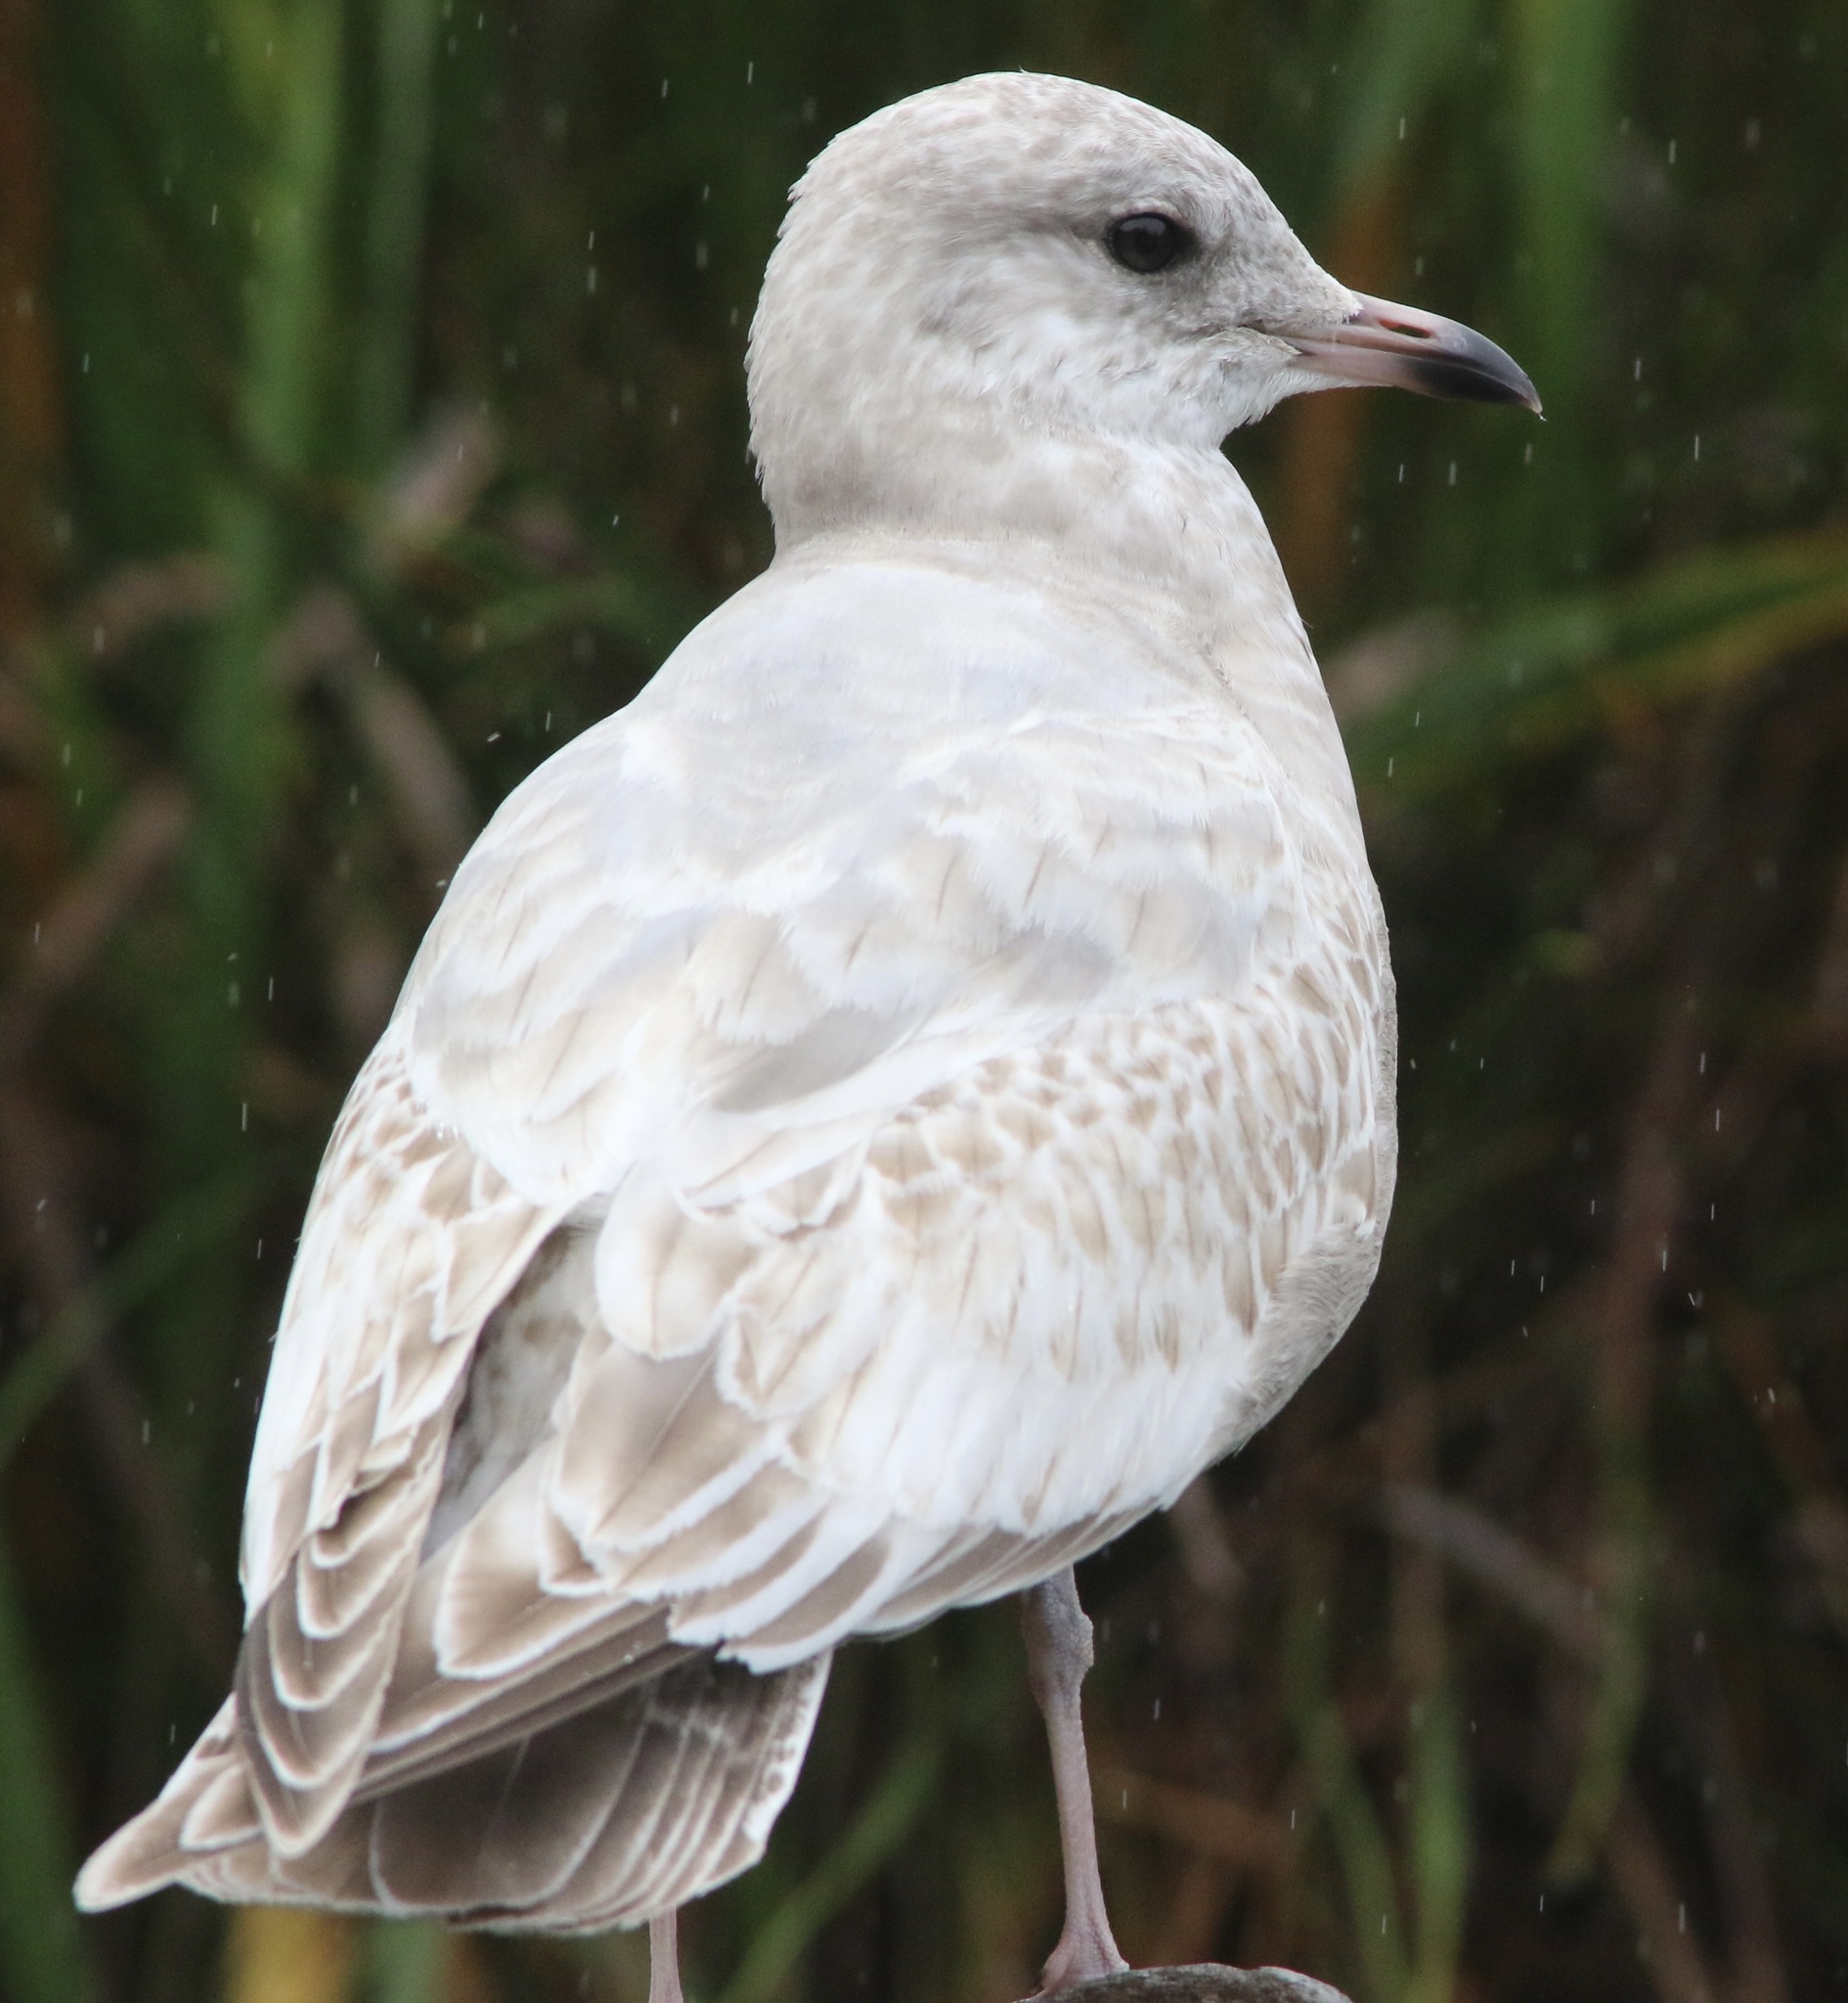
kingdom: Animalia
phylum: Chordata
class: Aves
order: Charadriiformes
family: Laridae
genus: Larus
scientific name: Larus brachyrhynchus
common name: Short-billed gull
